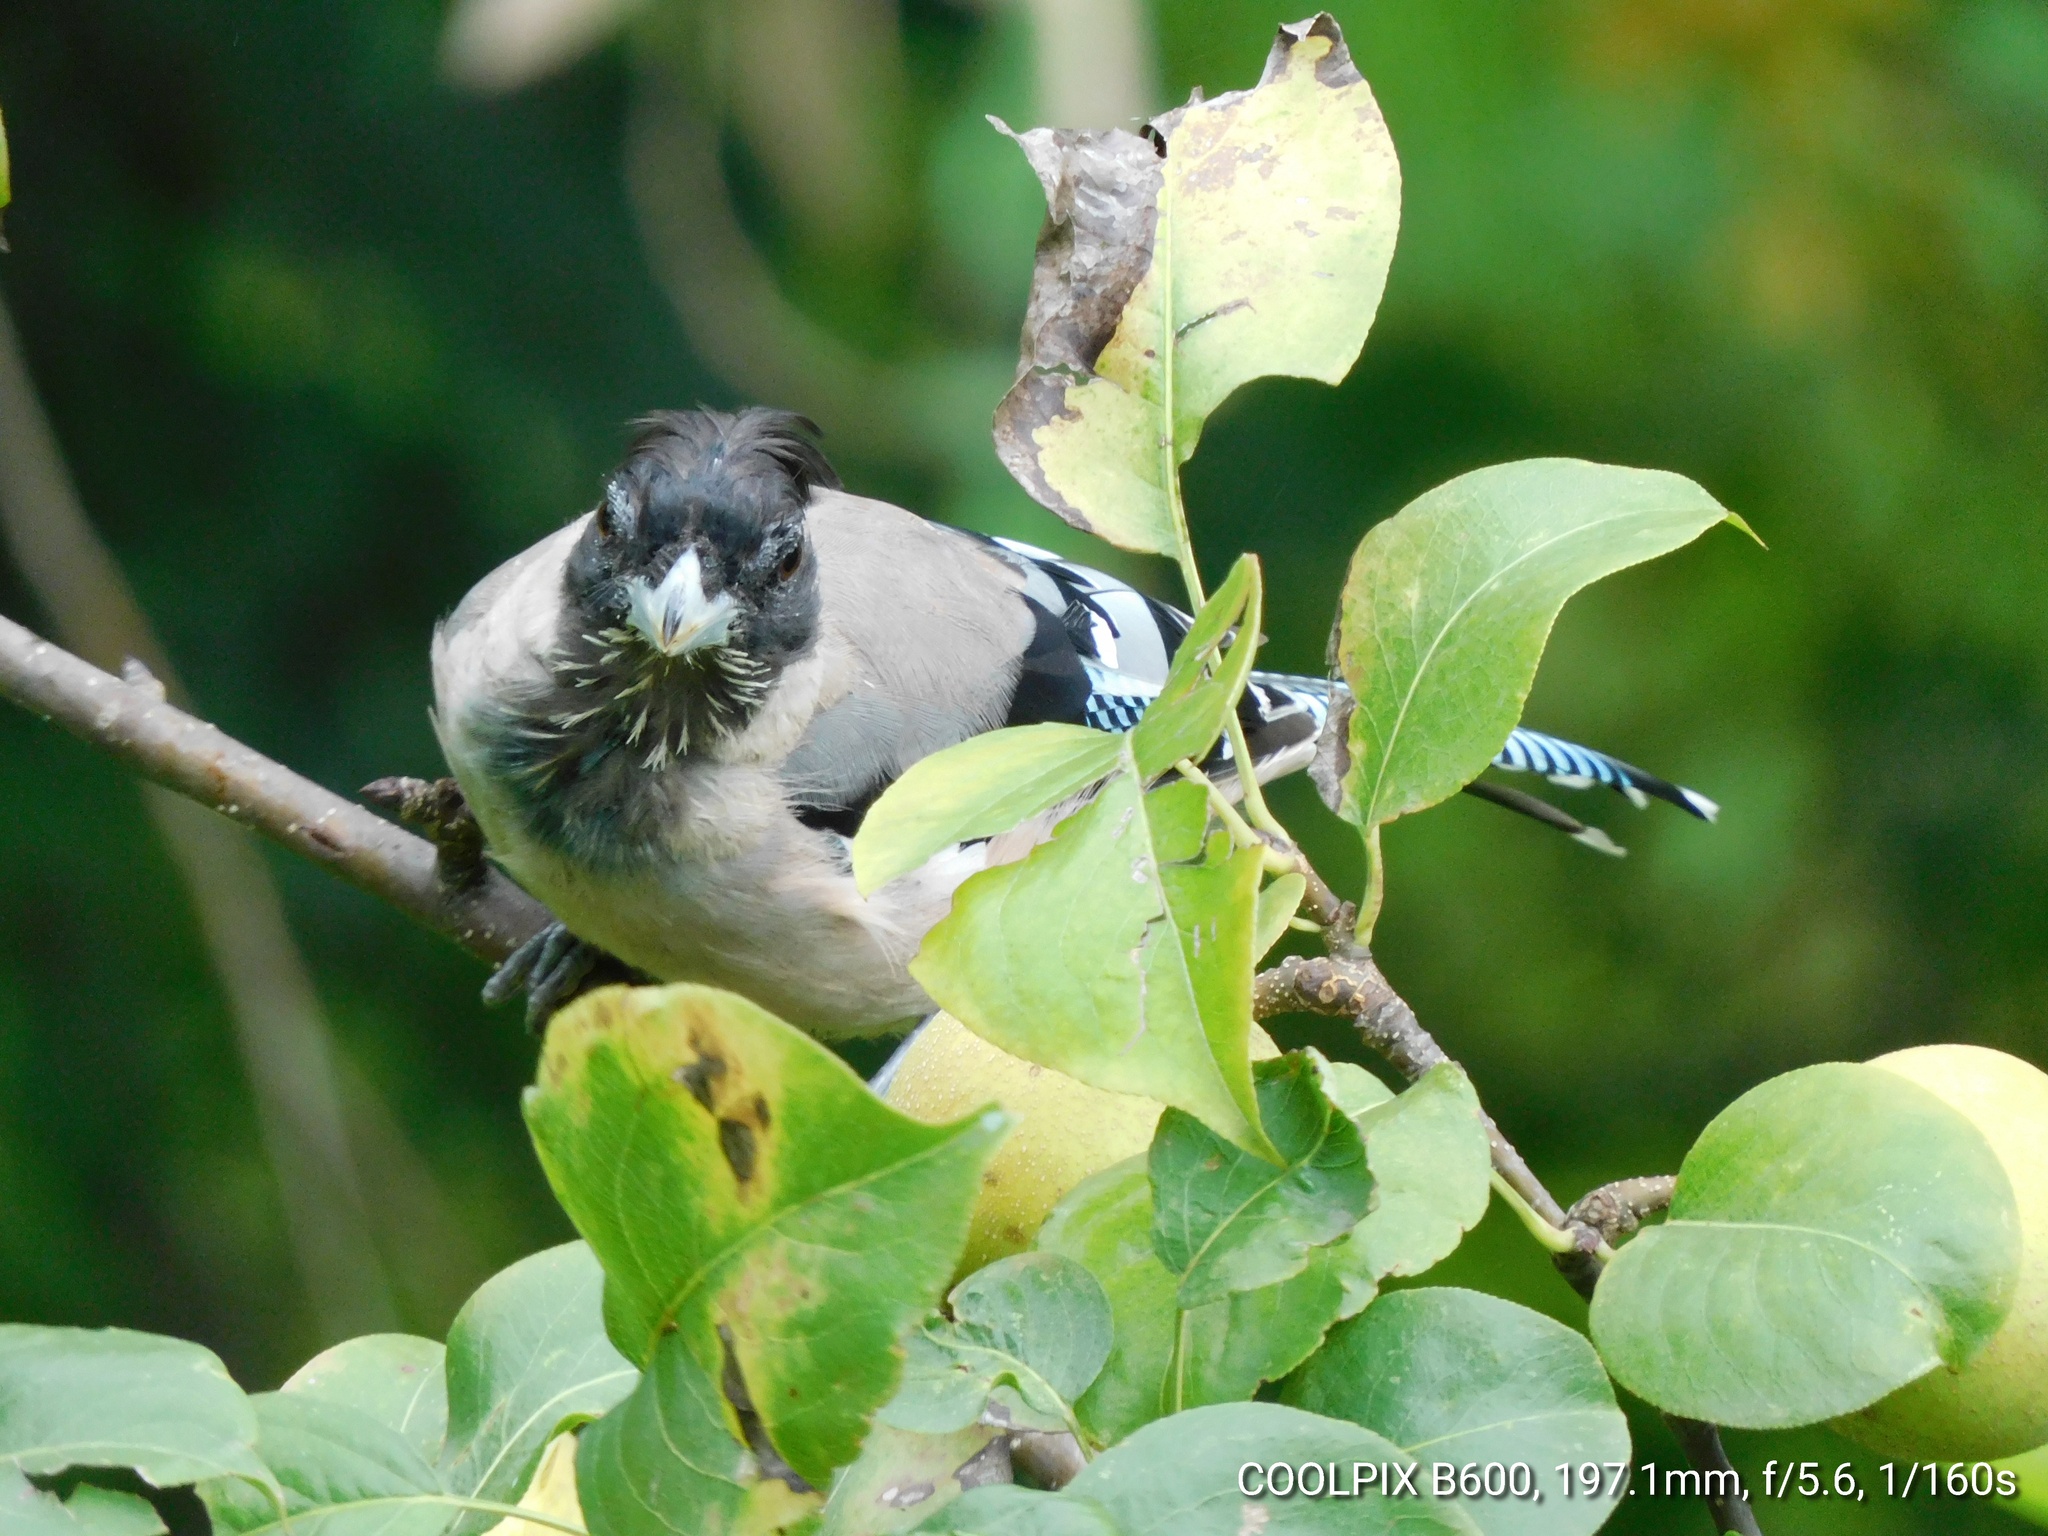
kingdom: Animalia
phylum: Chordata
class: Aves
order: Passeriformes
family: Corvidae
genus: Garrulus
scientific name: Garrulus lanceolatus
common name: Black-headed jay
